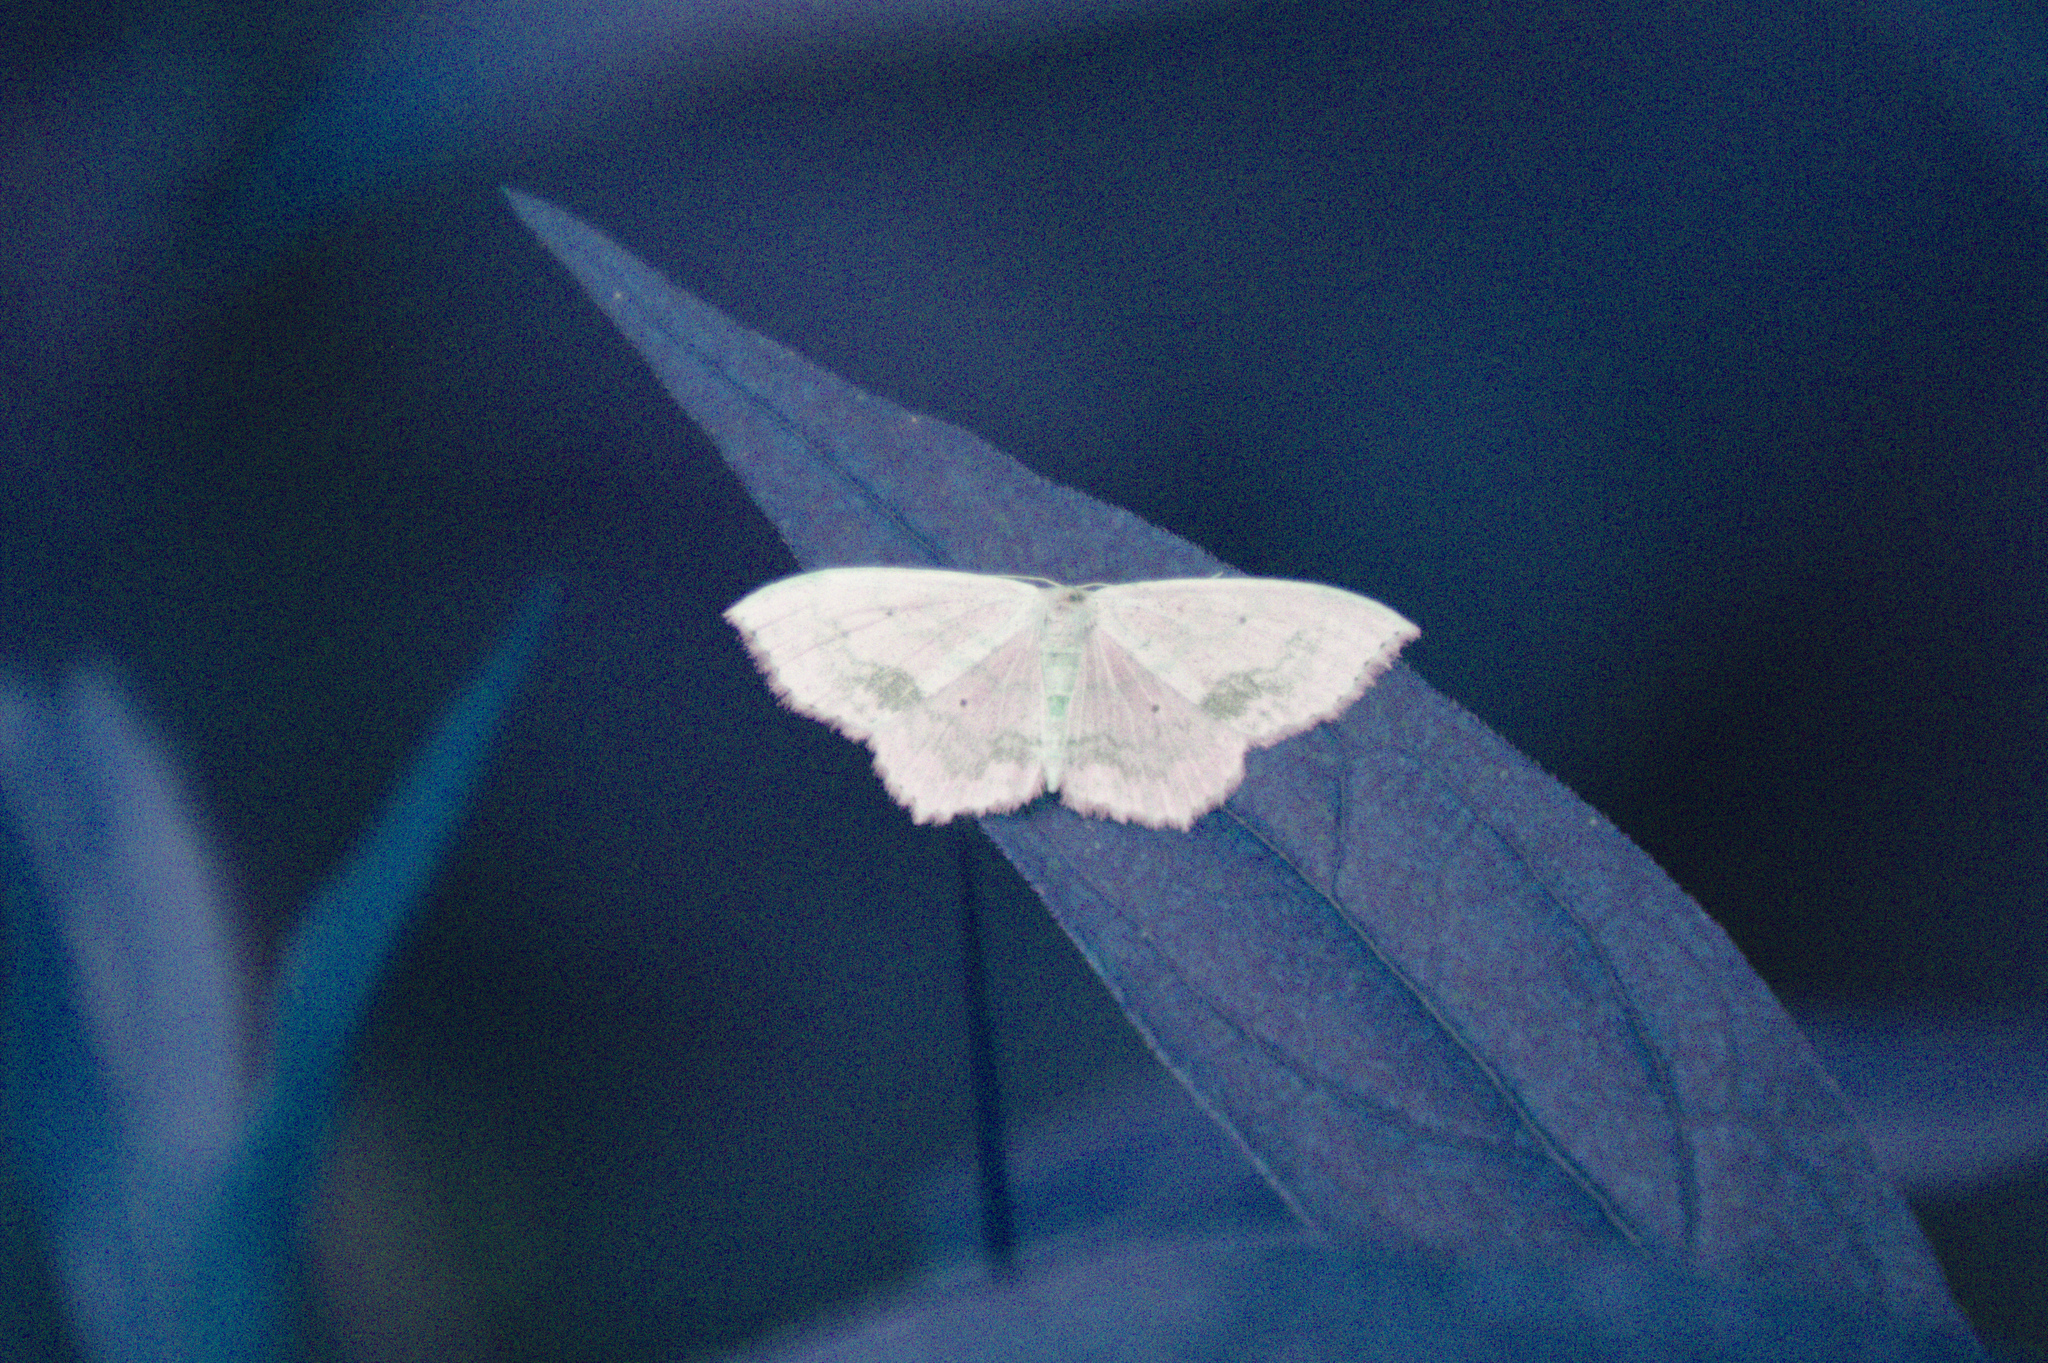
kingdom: Animalia
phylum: Arthropoda
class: Insecta
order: Lepidoptera
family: Geometridae
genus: Scopula
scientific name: Scopula limboundata
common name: Large lace border
